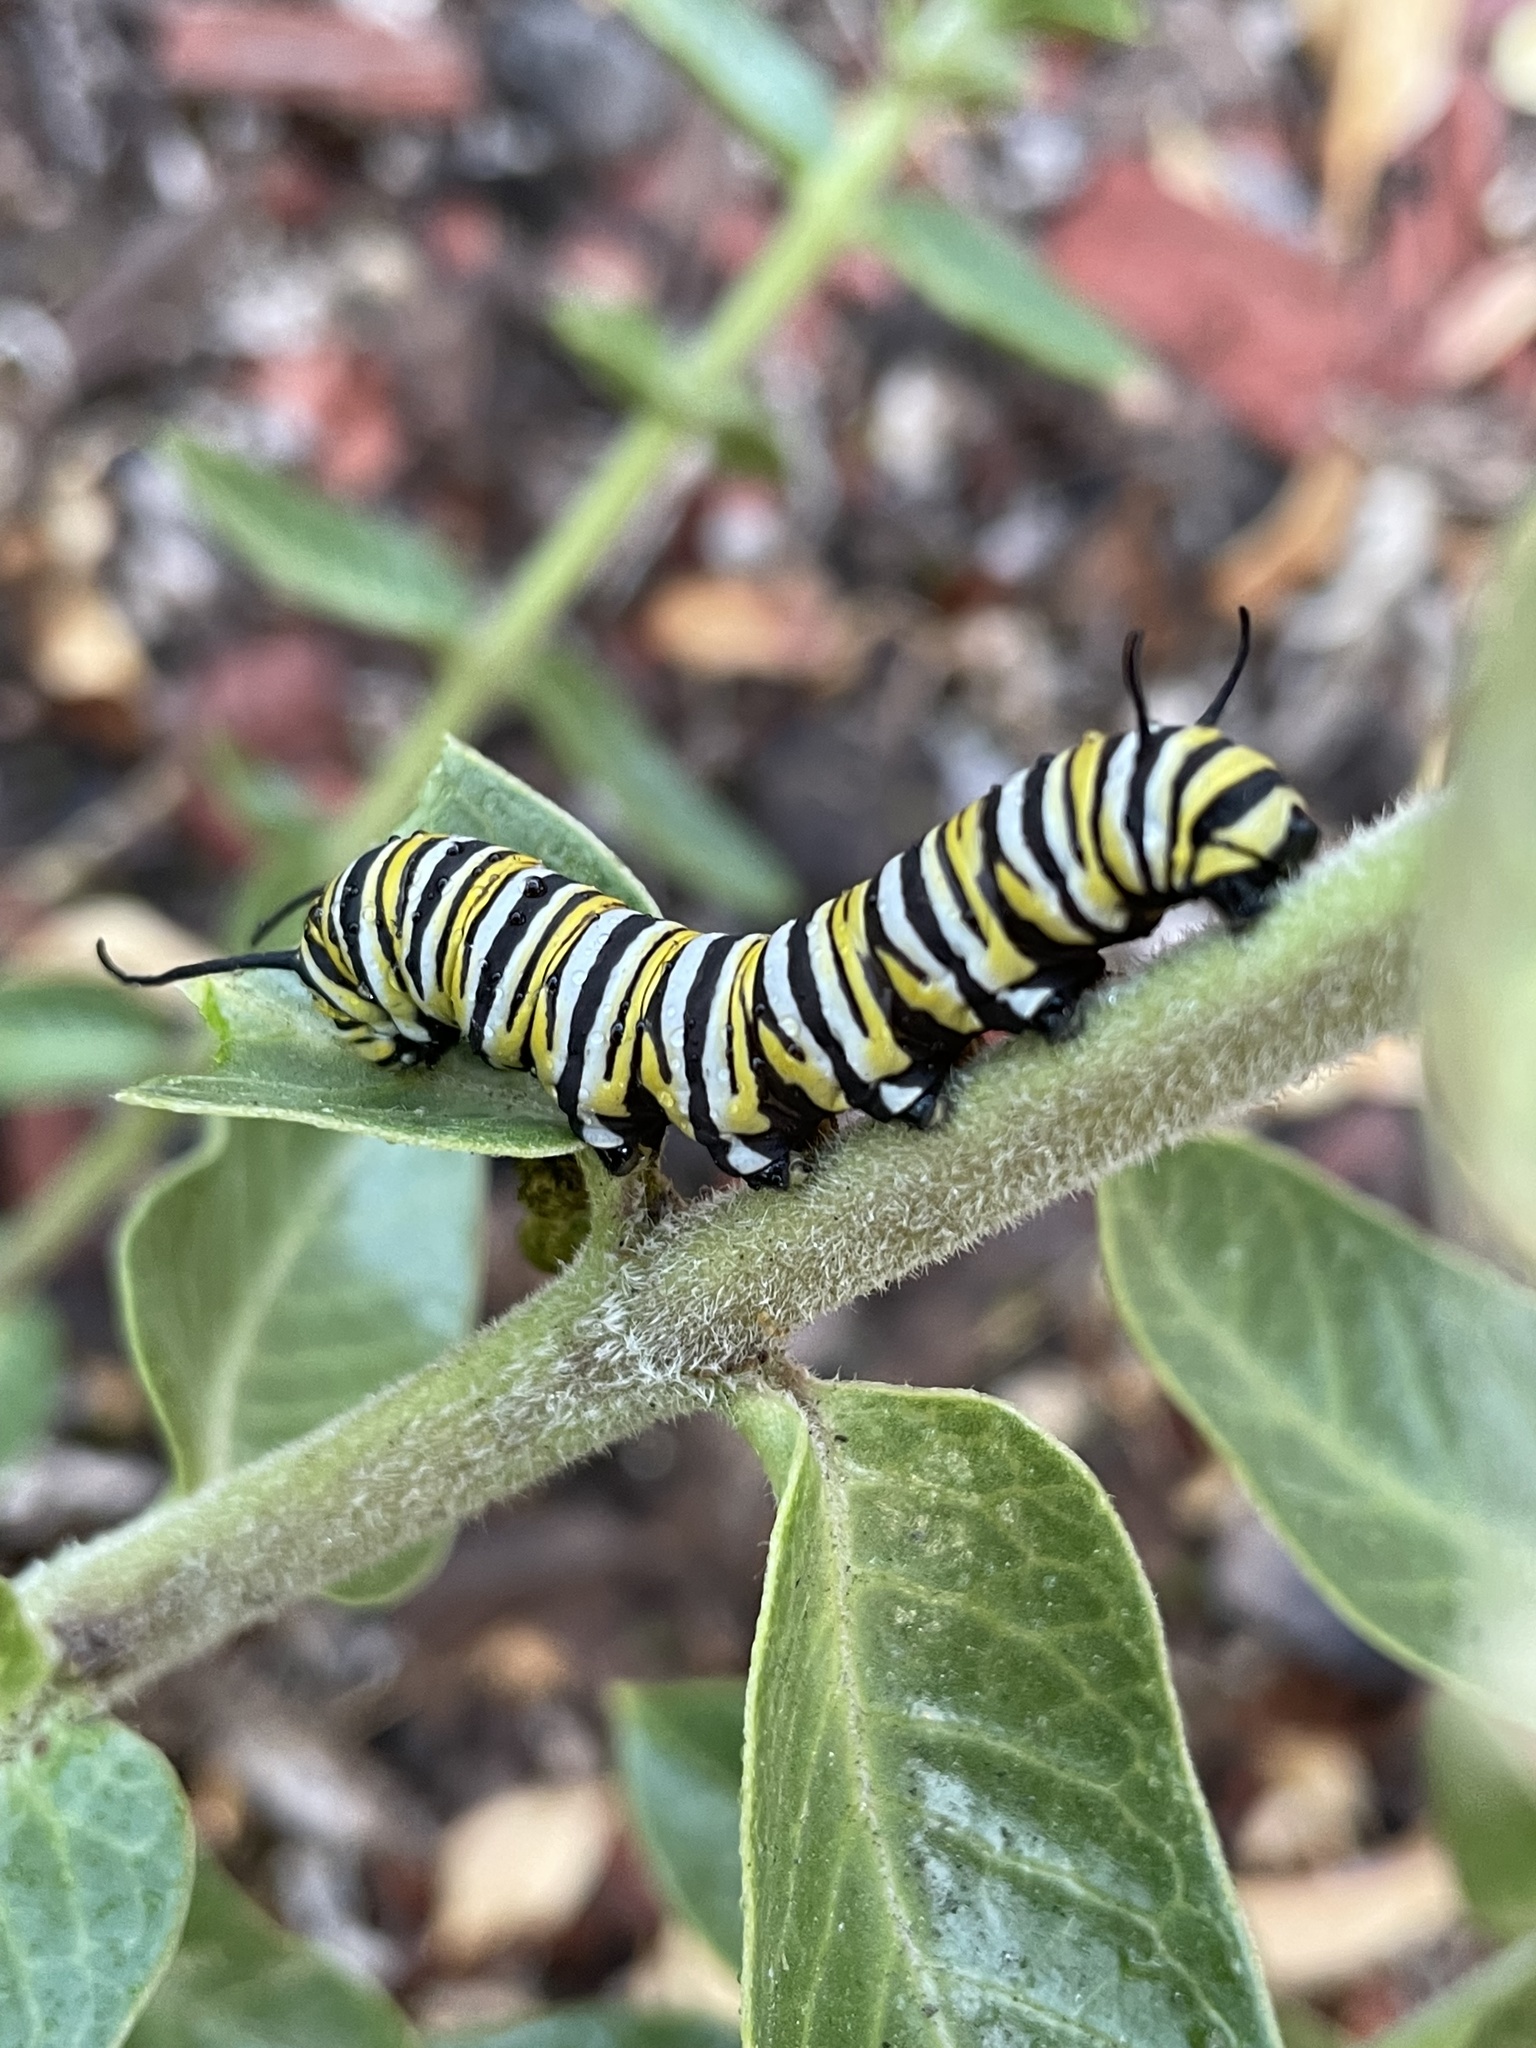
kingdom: Animalia
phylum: Arthropoda
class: Insecta
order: Lepidoptera
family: Nymphalidae
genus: Danaus
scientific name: Danaus plexippus
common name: Monarch
